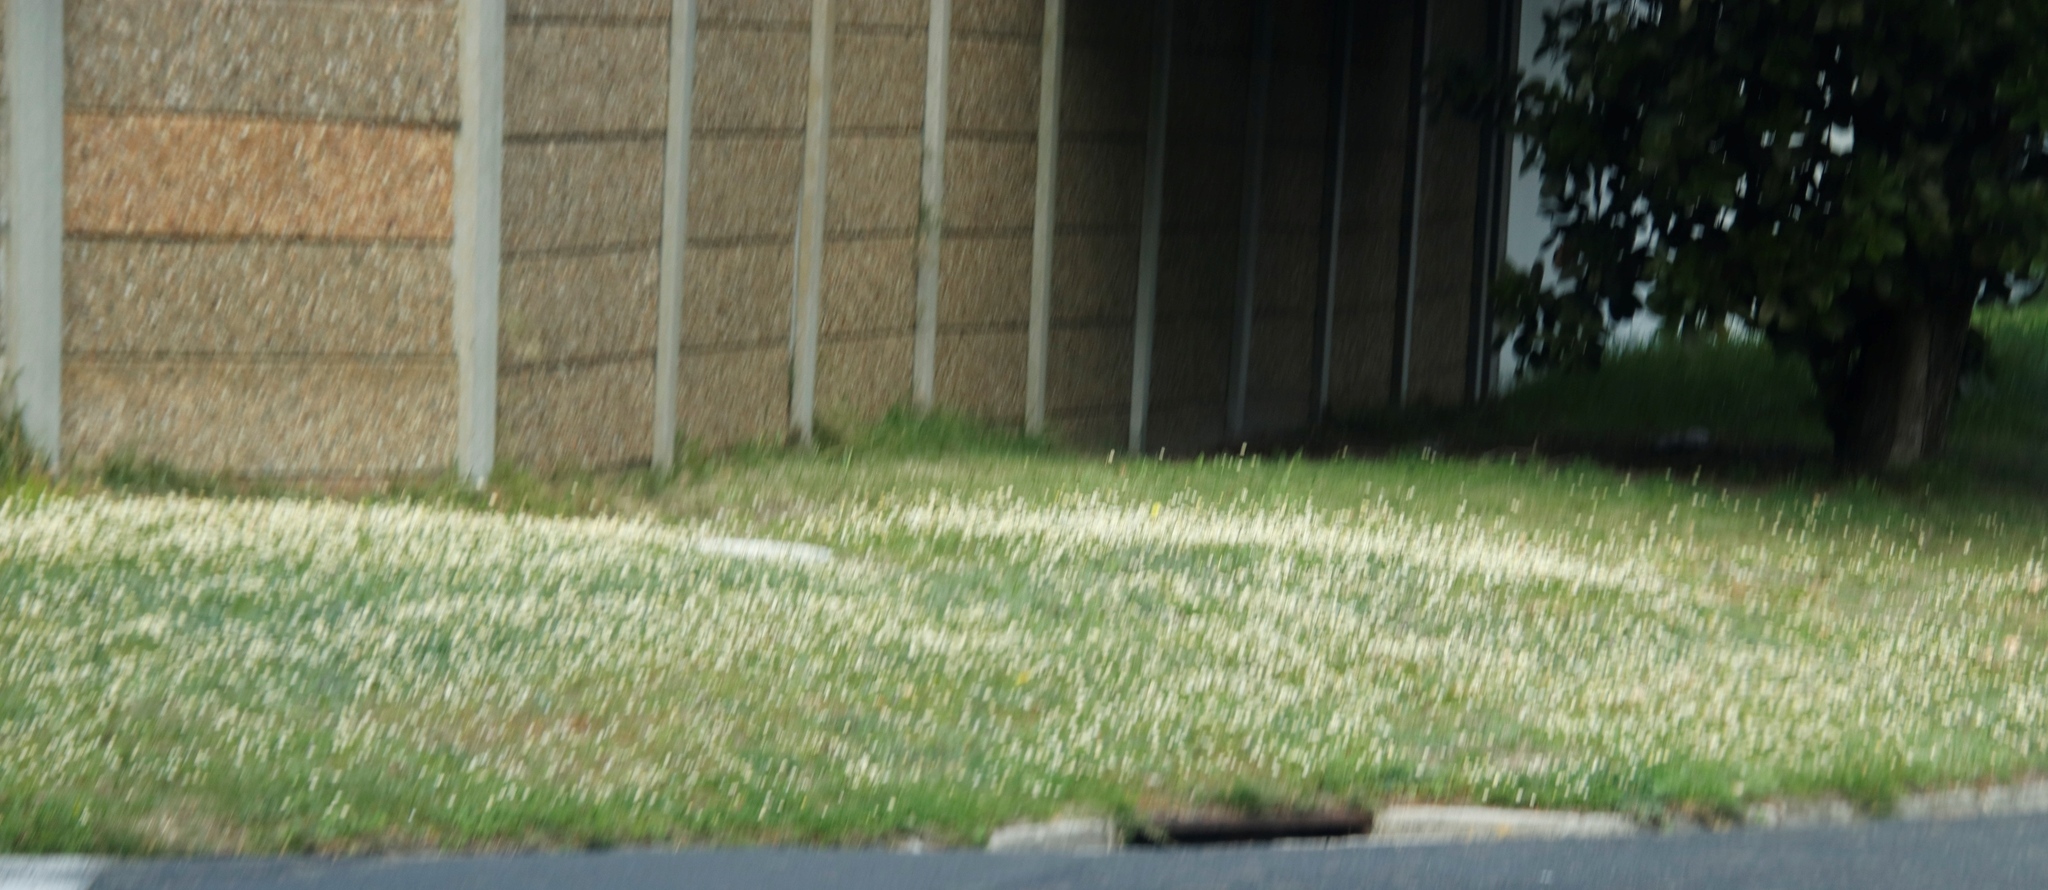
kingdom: Plantae
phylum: Tracheophyta
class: Magnoliopsida
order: Asterales
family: Asteraceae
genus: Cotula
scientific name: Cotula turbinata
